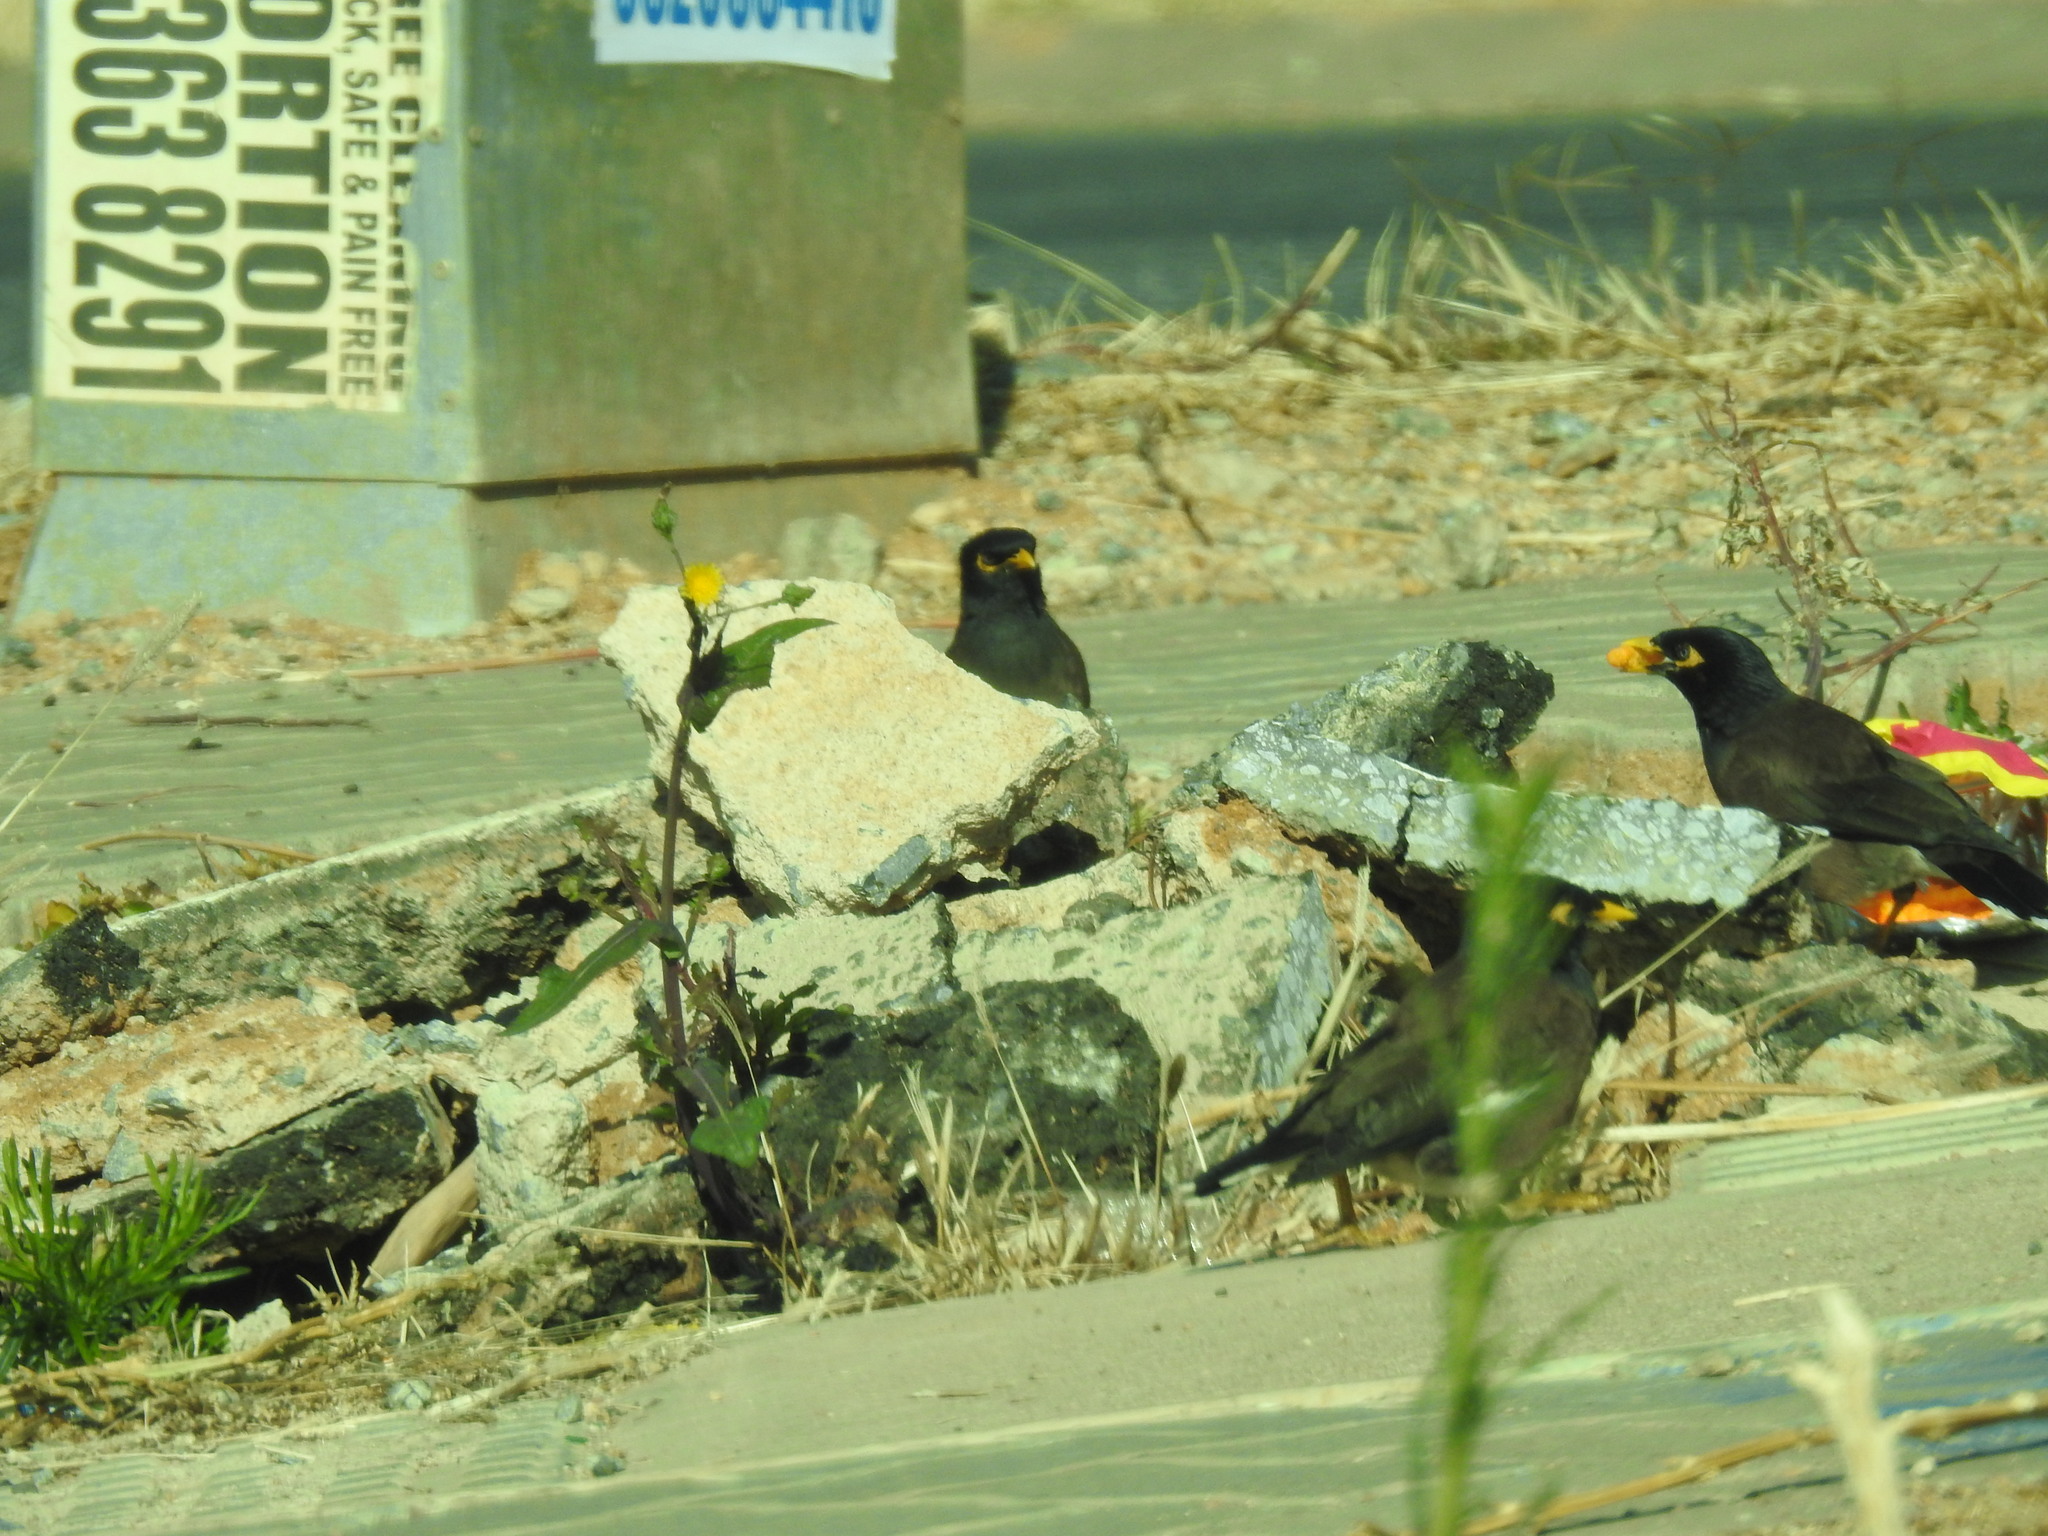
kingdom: Animalia
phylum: Chordata
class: Aves
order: Passeriformes
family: Sturnidae
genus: Acridotheres
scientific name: Acridotheres tristis
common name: Common myna
